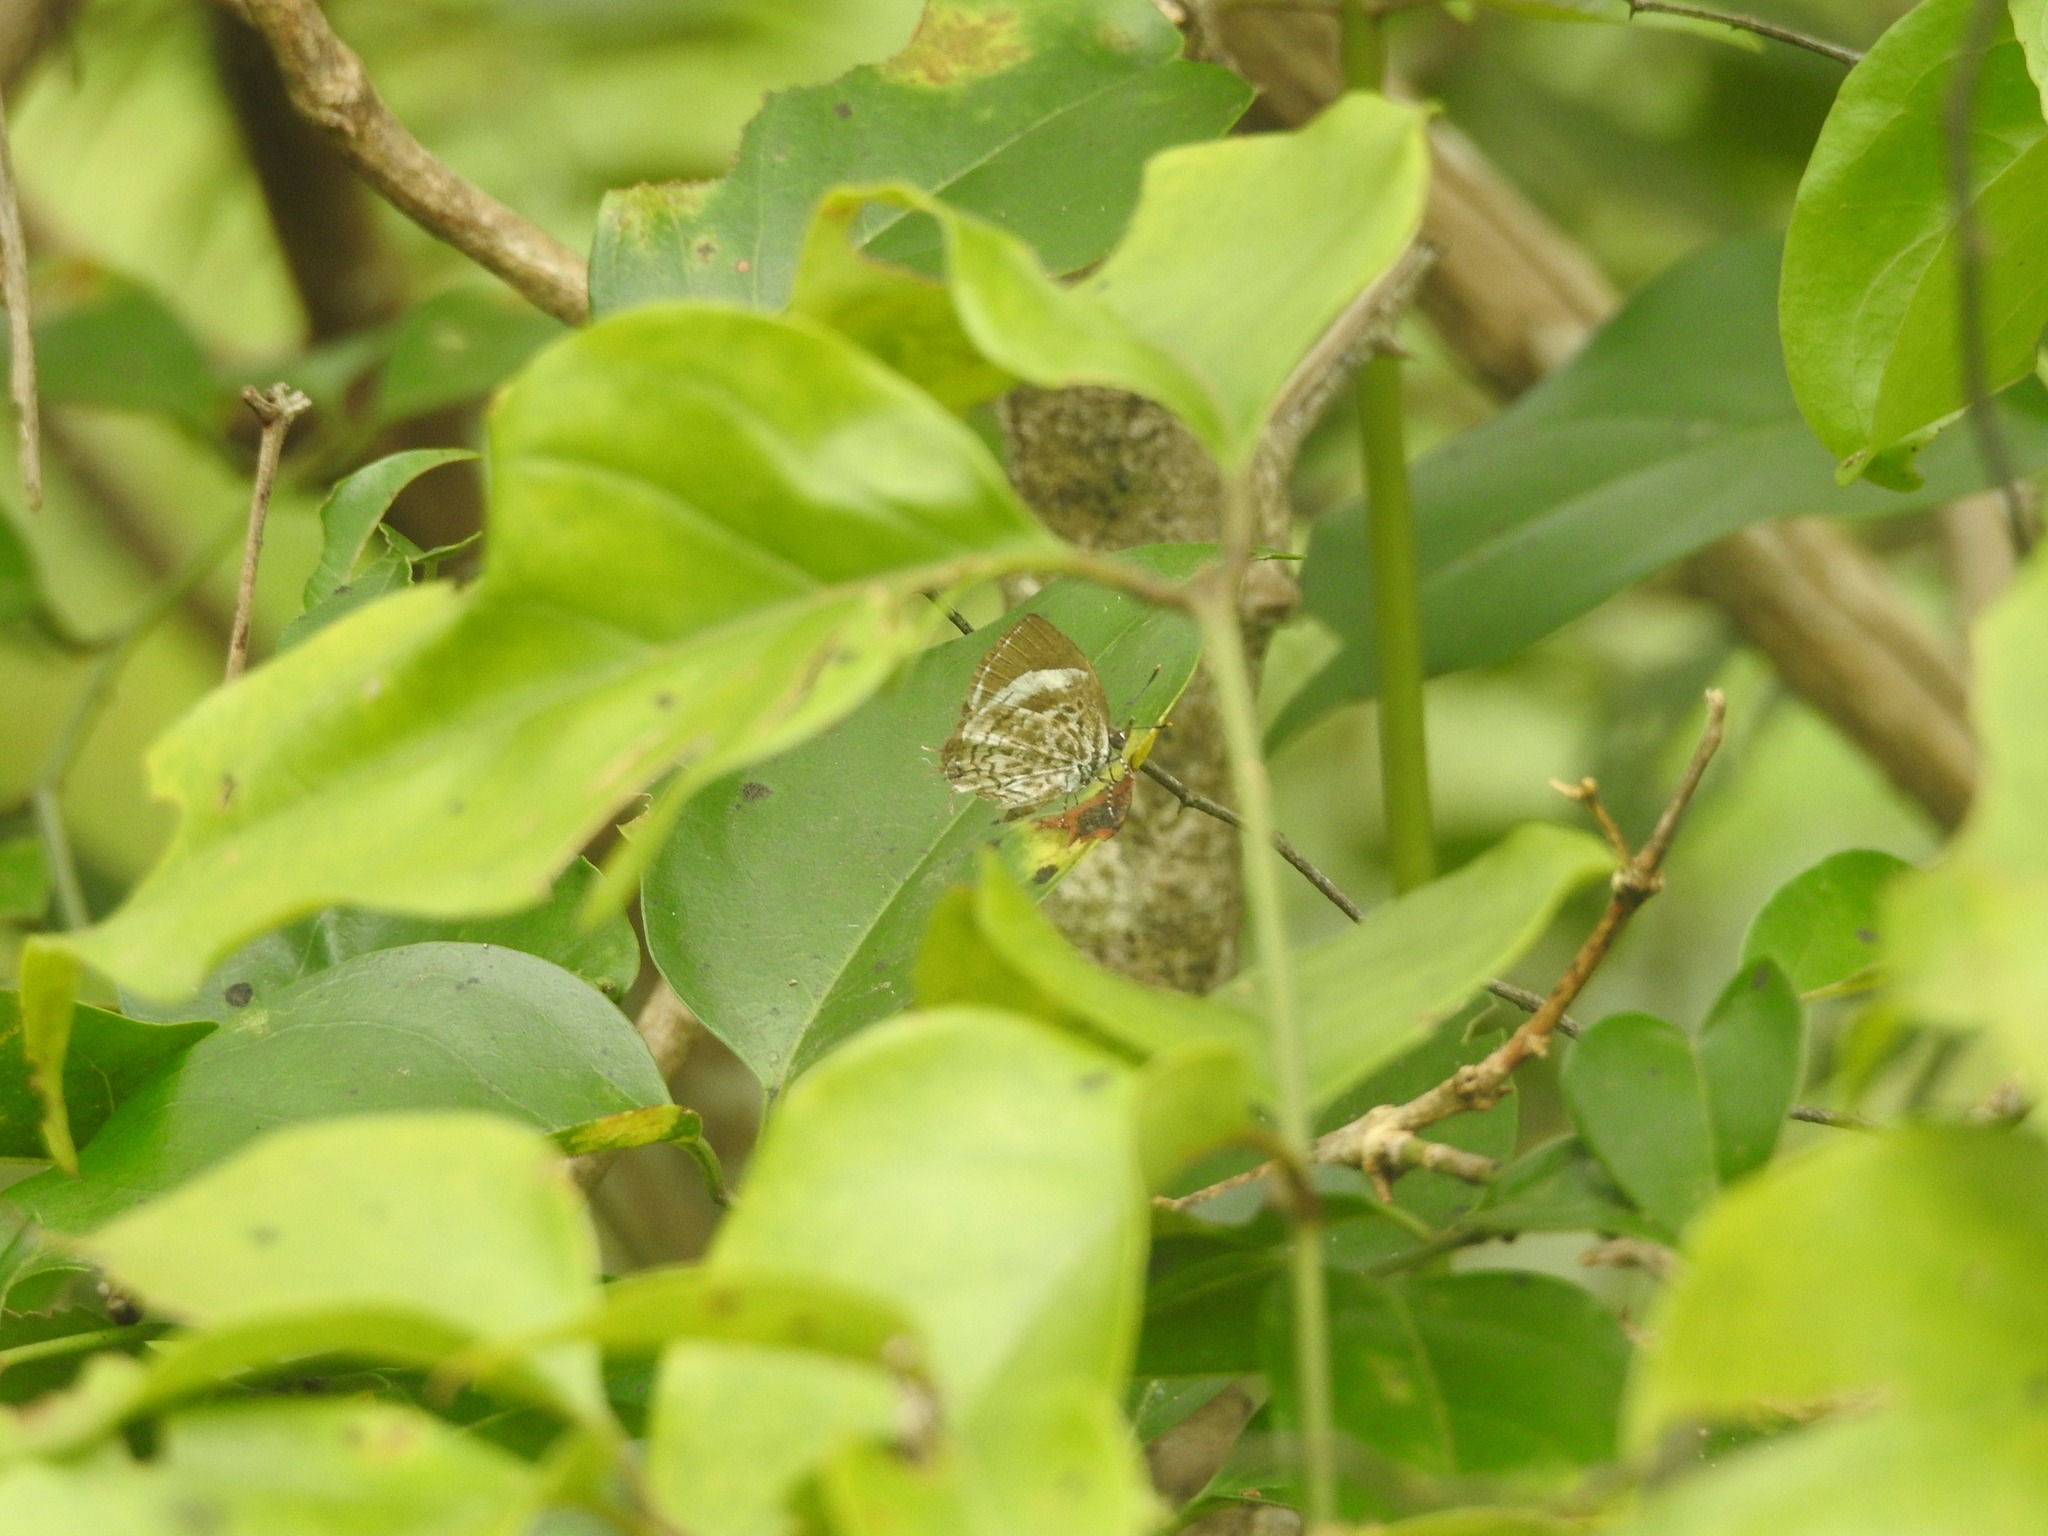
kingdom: Animalia
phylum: Arthropoda
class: Insecta
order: Lepidoptera
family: Lycaenidae
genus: Rathinda
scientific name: Rathinda amor
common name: Monkey puzzle
